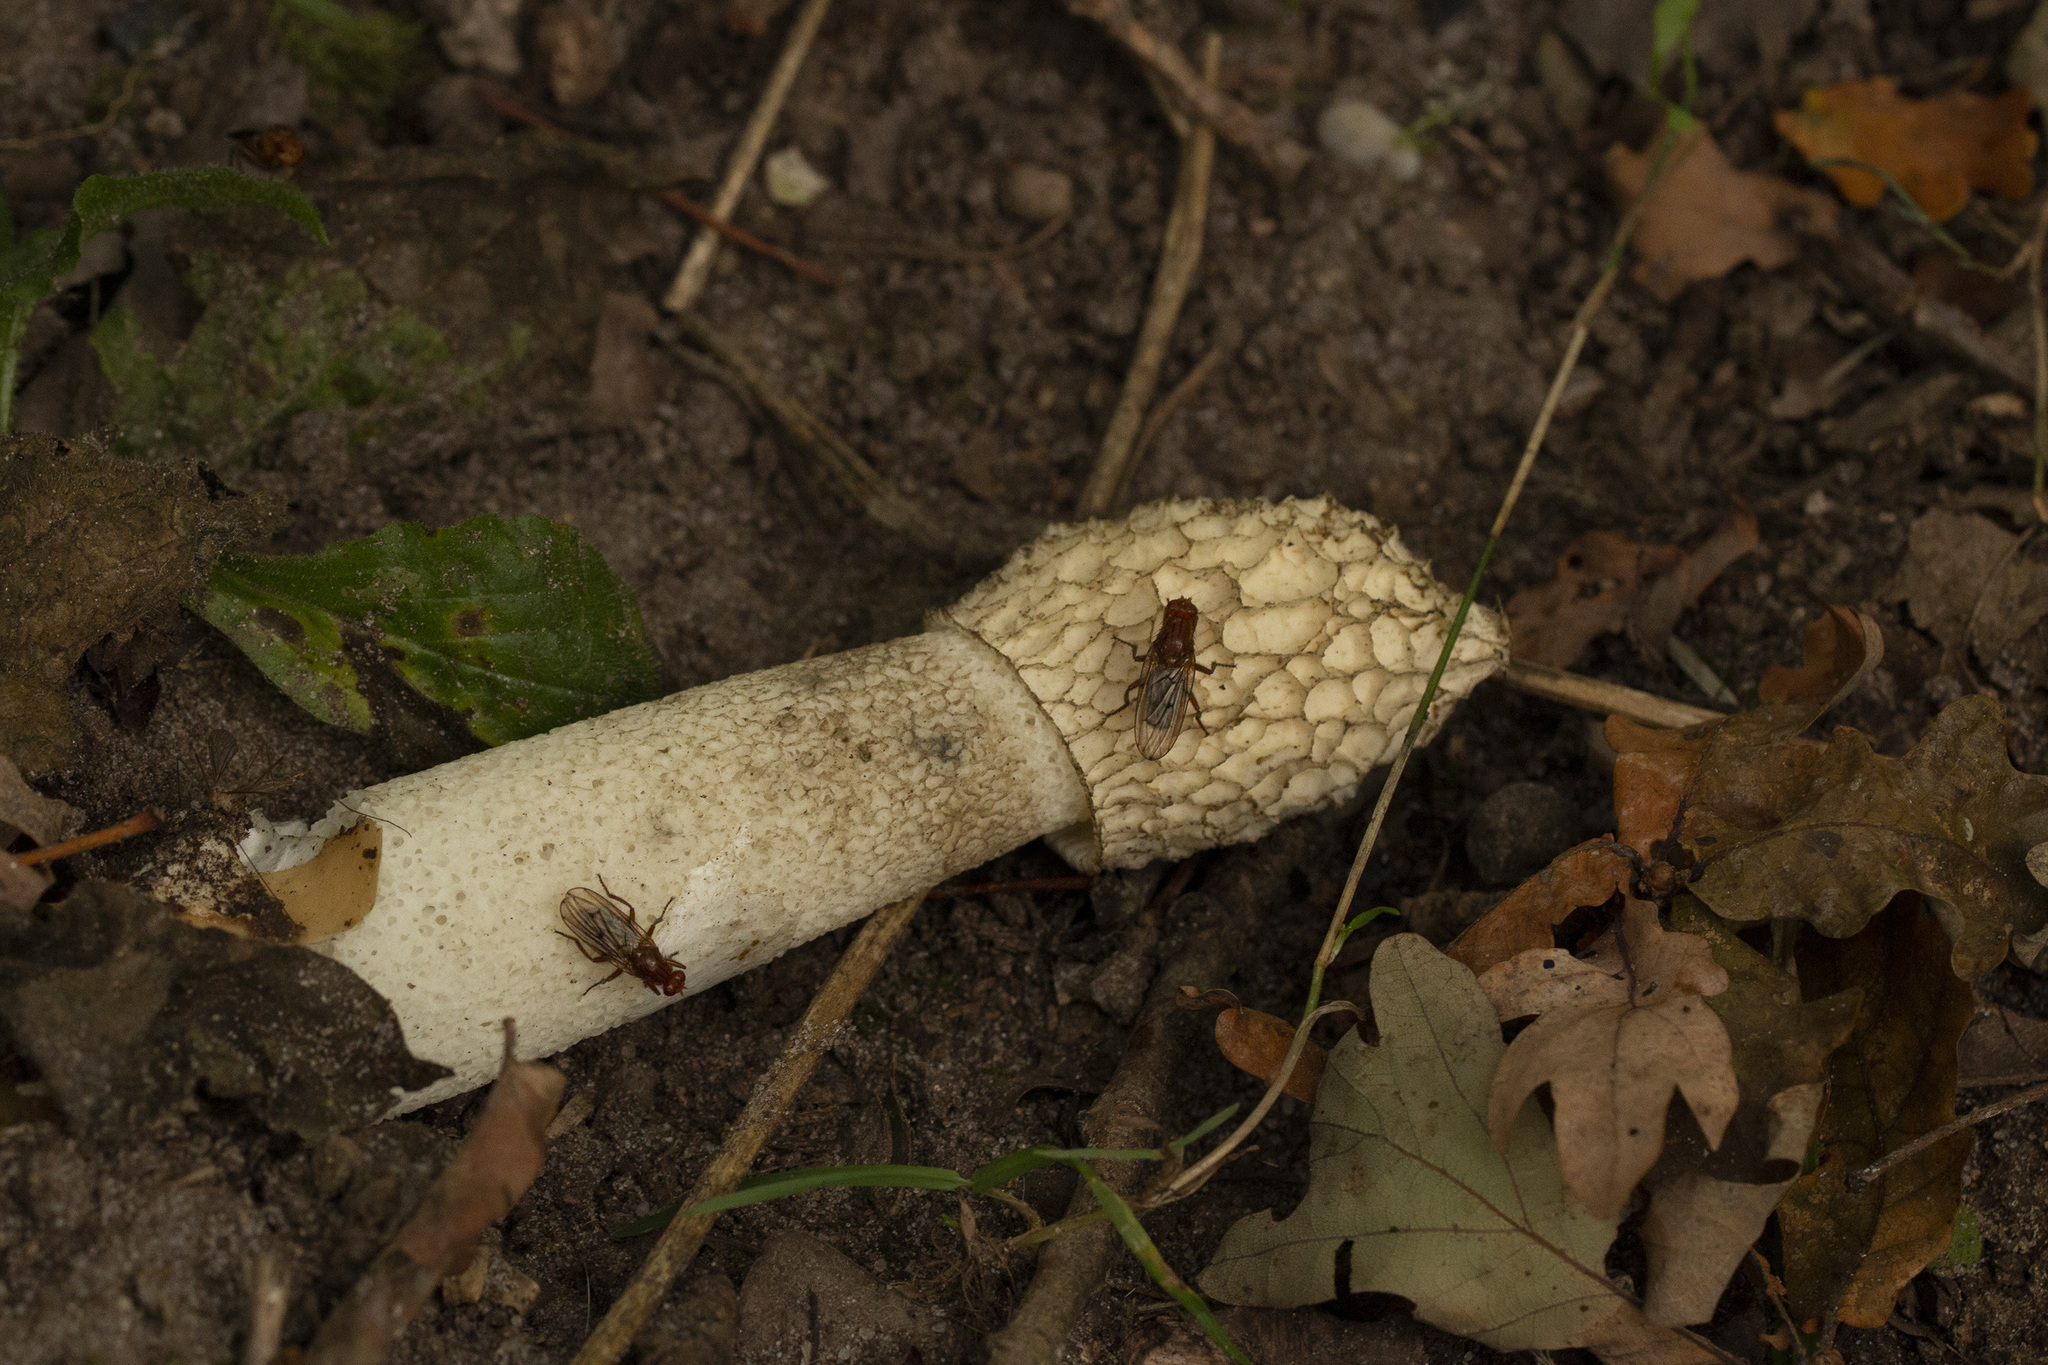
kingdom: Fungi
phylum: Basidiomycota
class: Agaricomycetes
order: Phallales
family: Phallaceae
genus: Phallus
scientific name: Phallus impudicus
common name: Common stinkhorn
